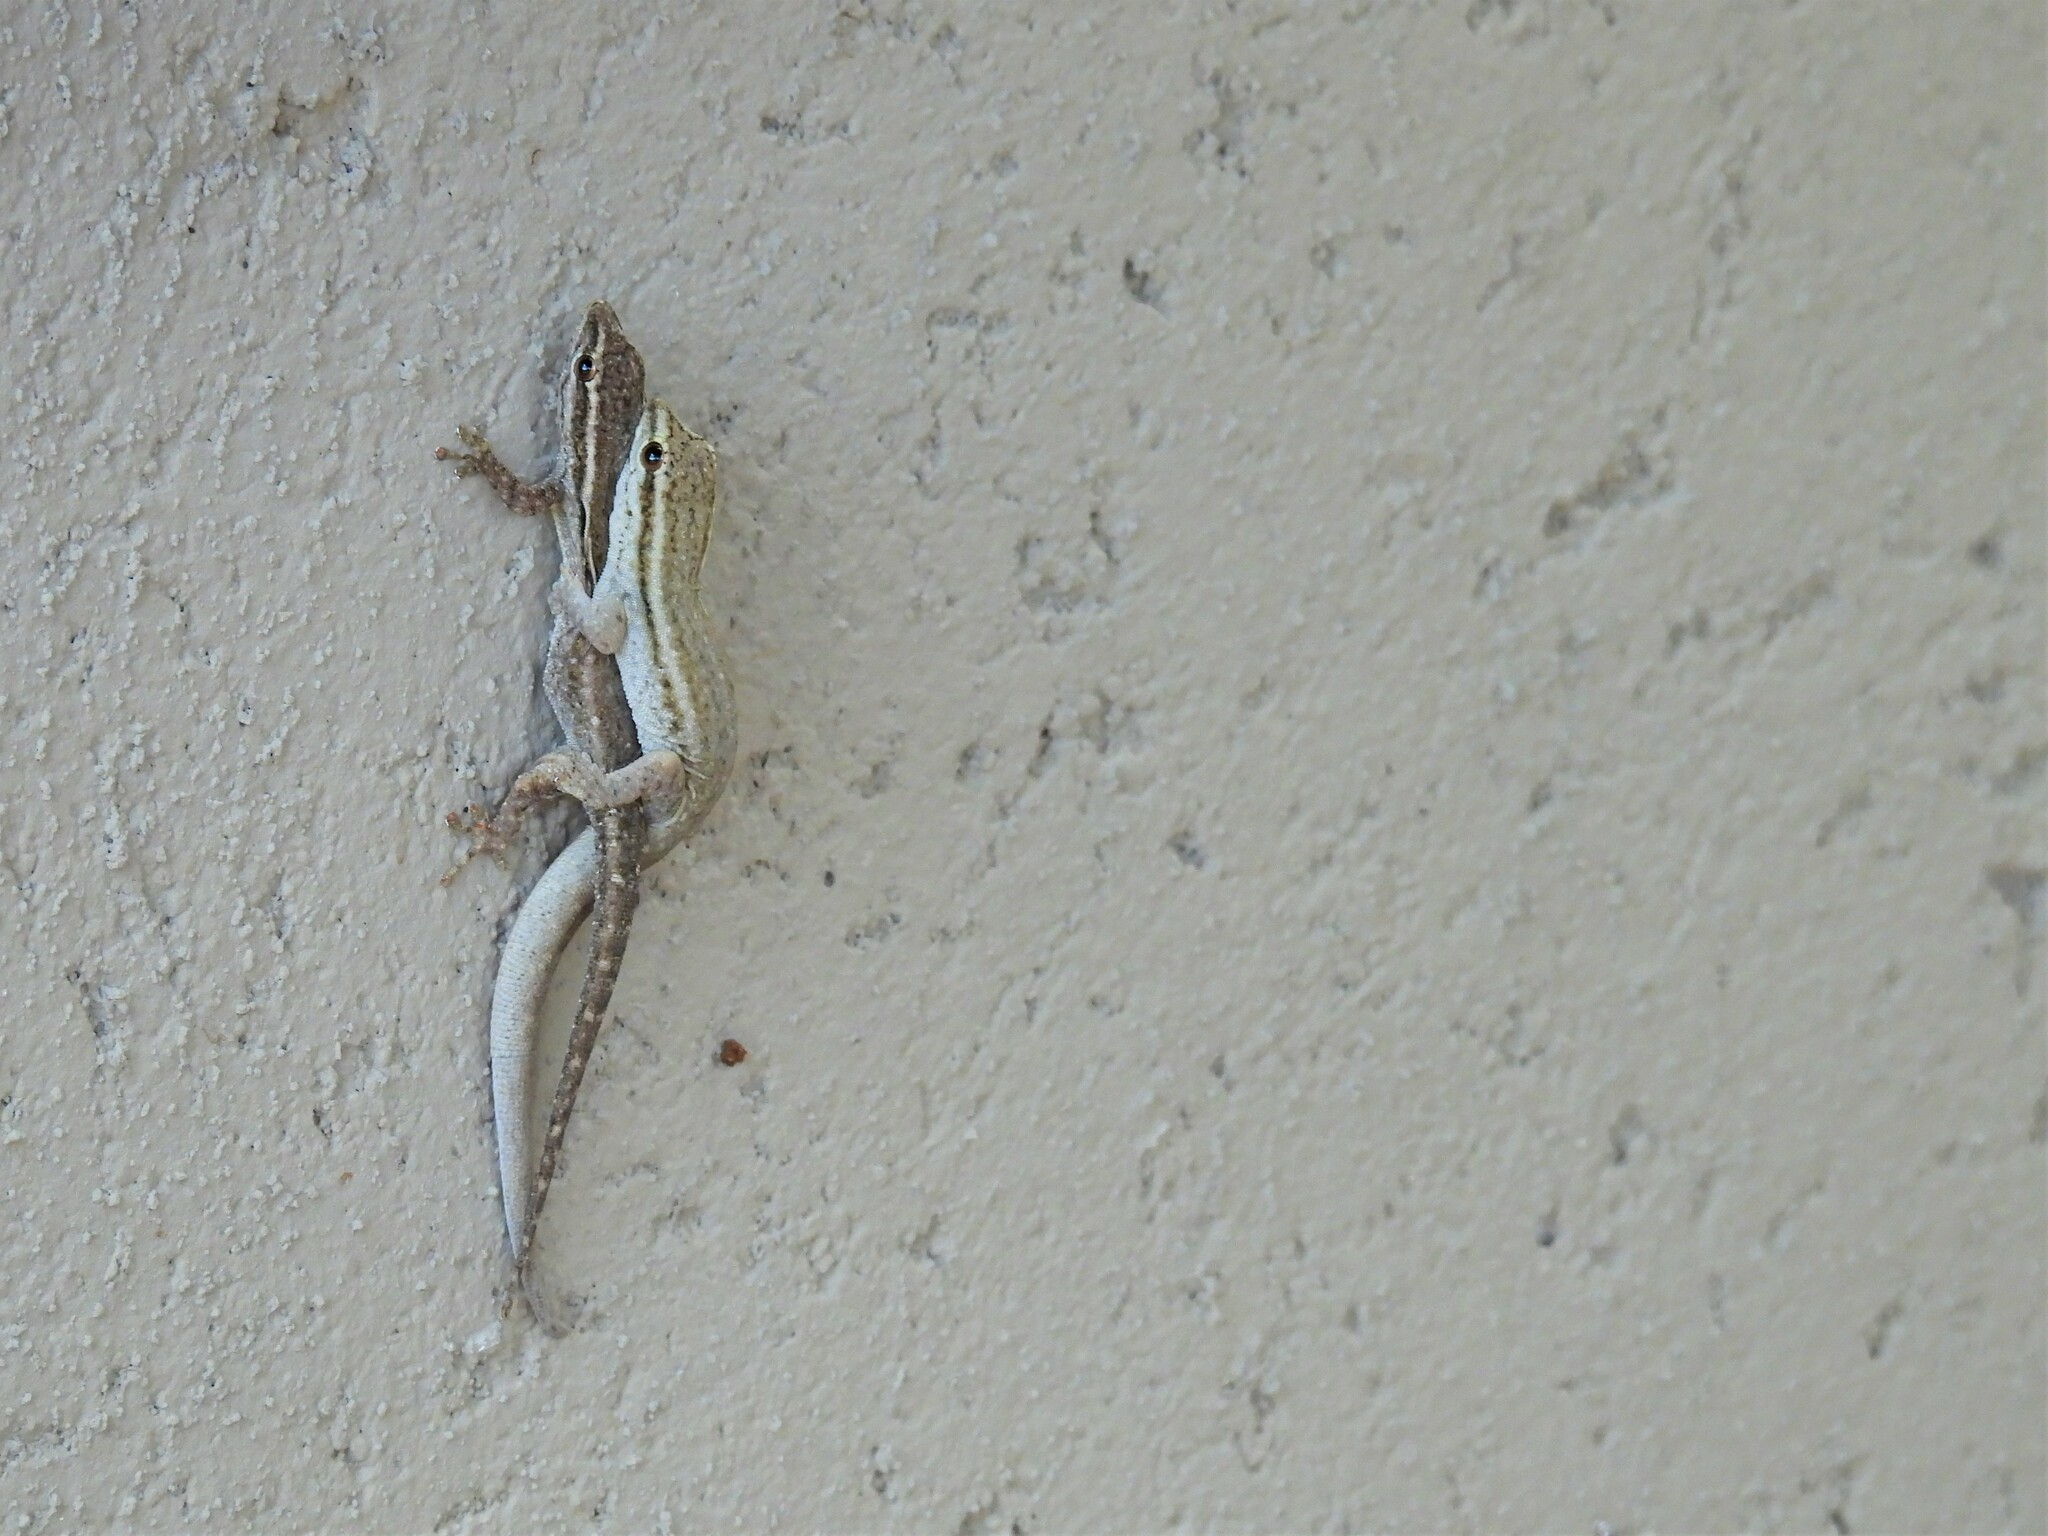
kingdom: Animalia
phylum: Chordata
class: Squamata
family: Gekkonidae
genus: Lygodactylus
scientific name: Lygodactylus capensis
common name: Cape dwarf gecko
